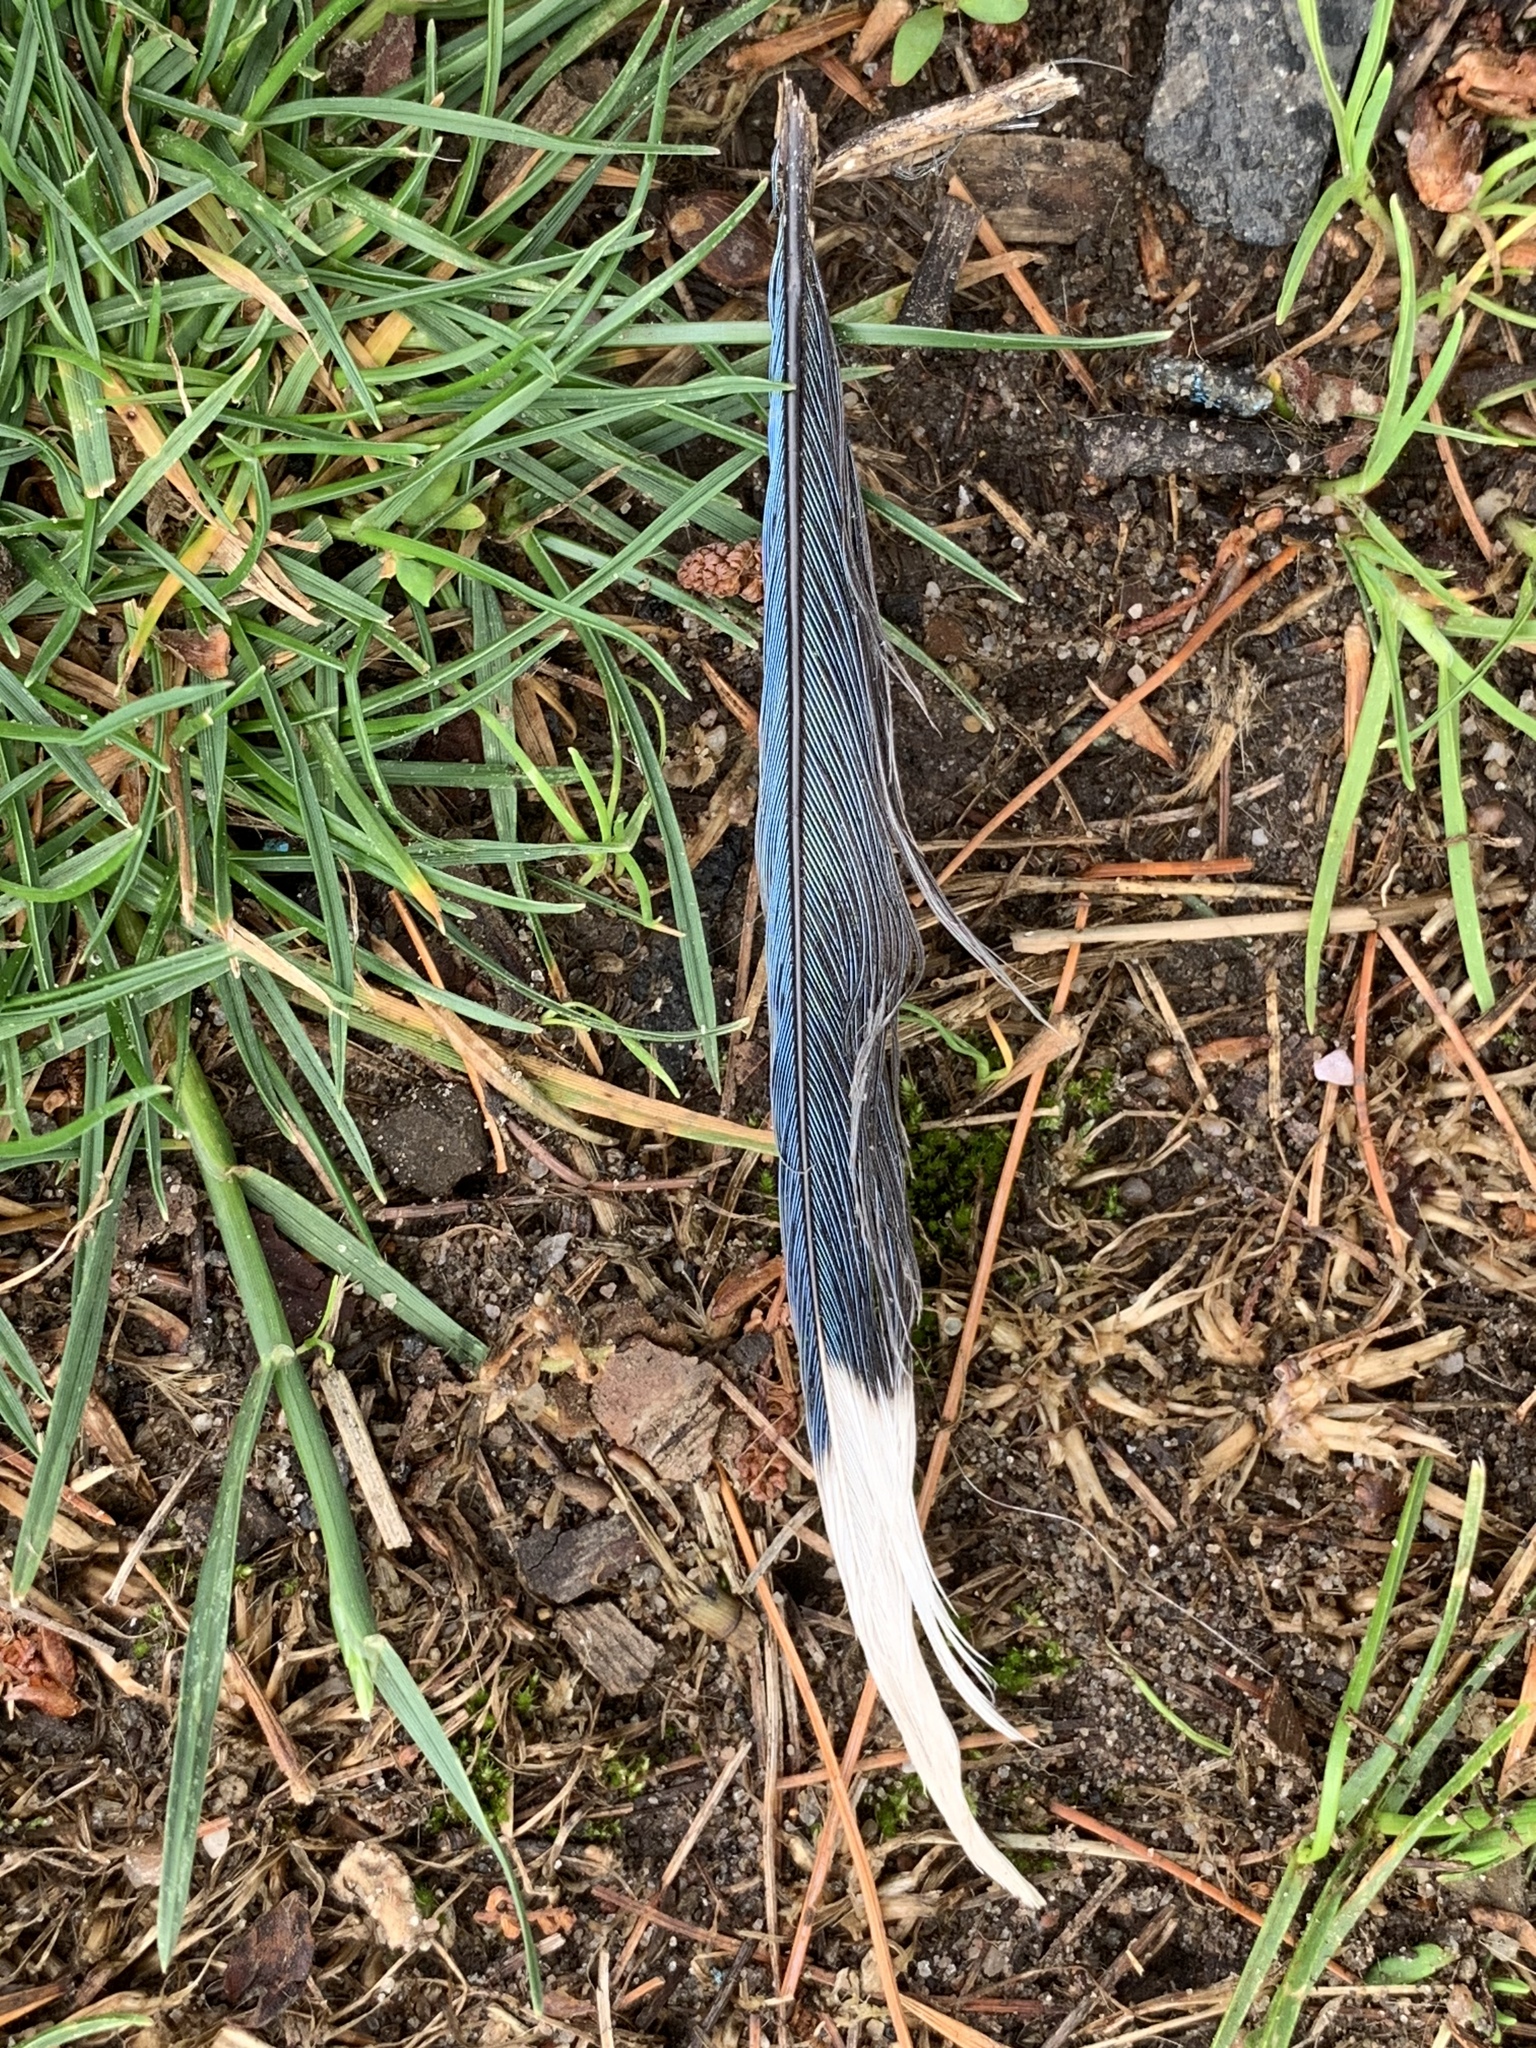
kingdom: Animalia
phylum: Chordata
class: Aves
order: Passeriformes
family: Corvidae
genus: Cyanocitta
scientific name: Cyanocitta cristata
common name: Blue jay
